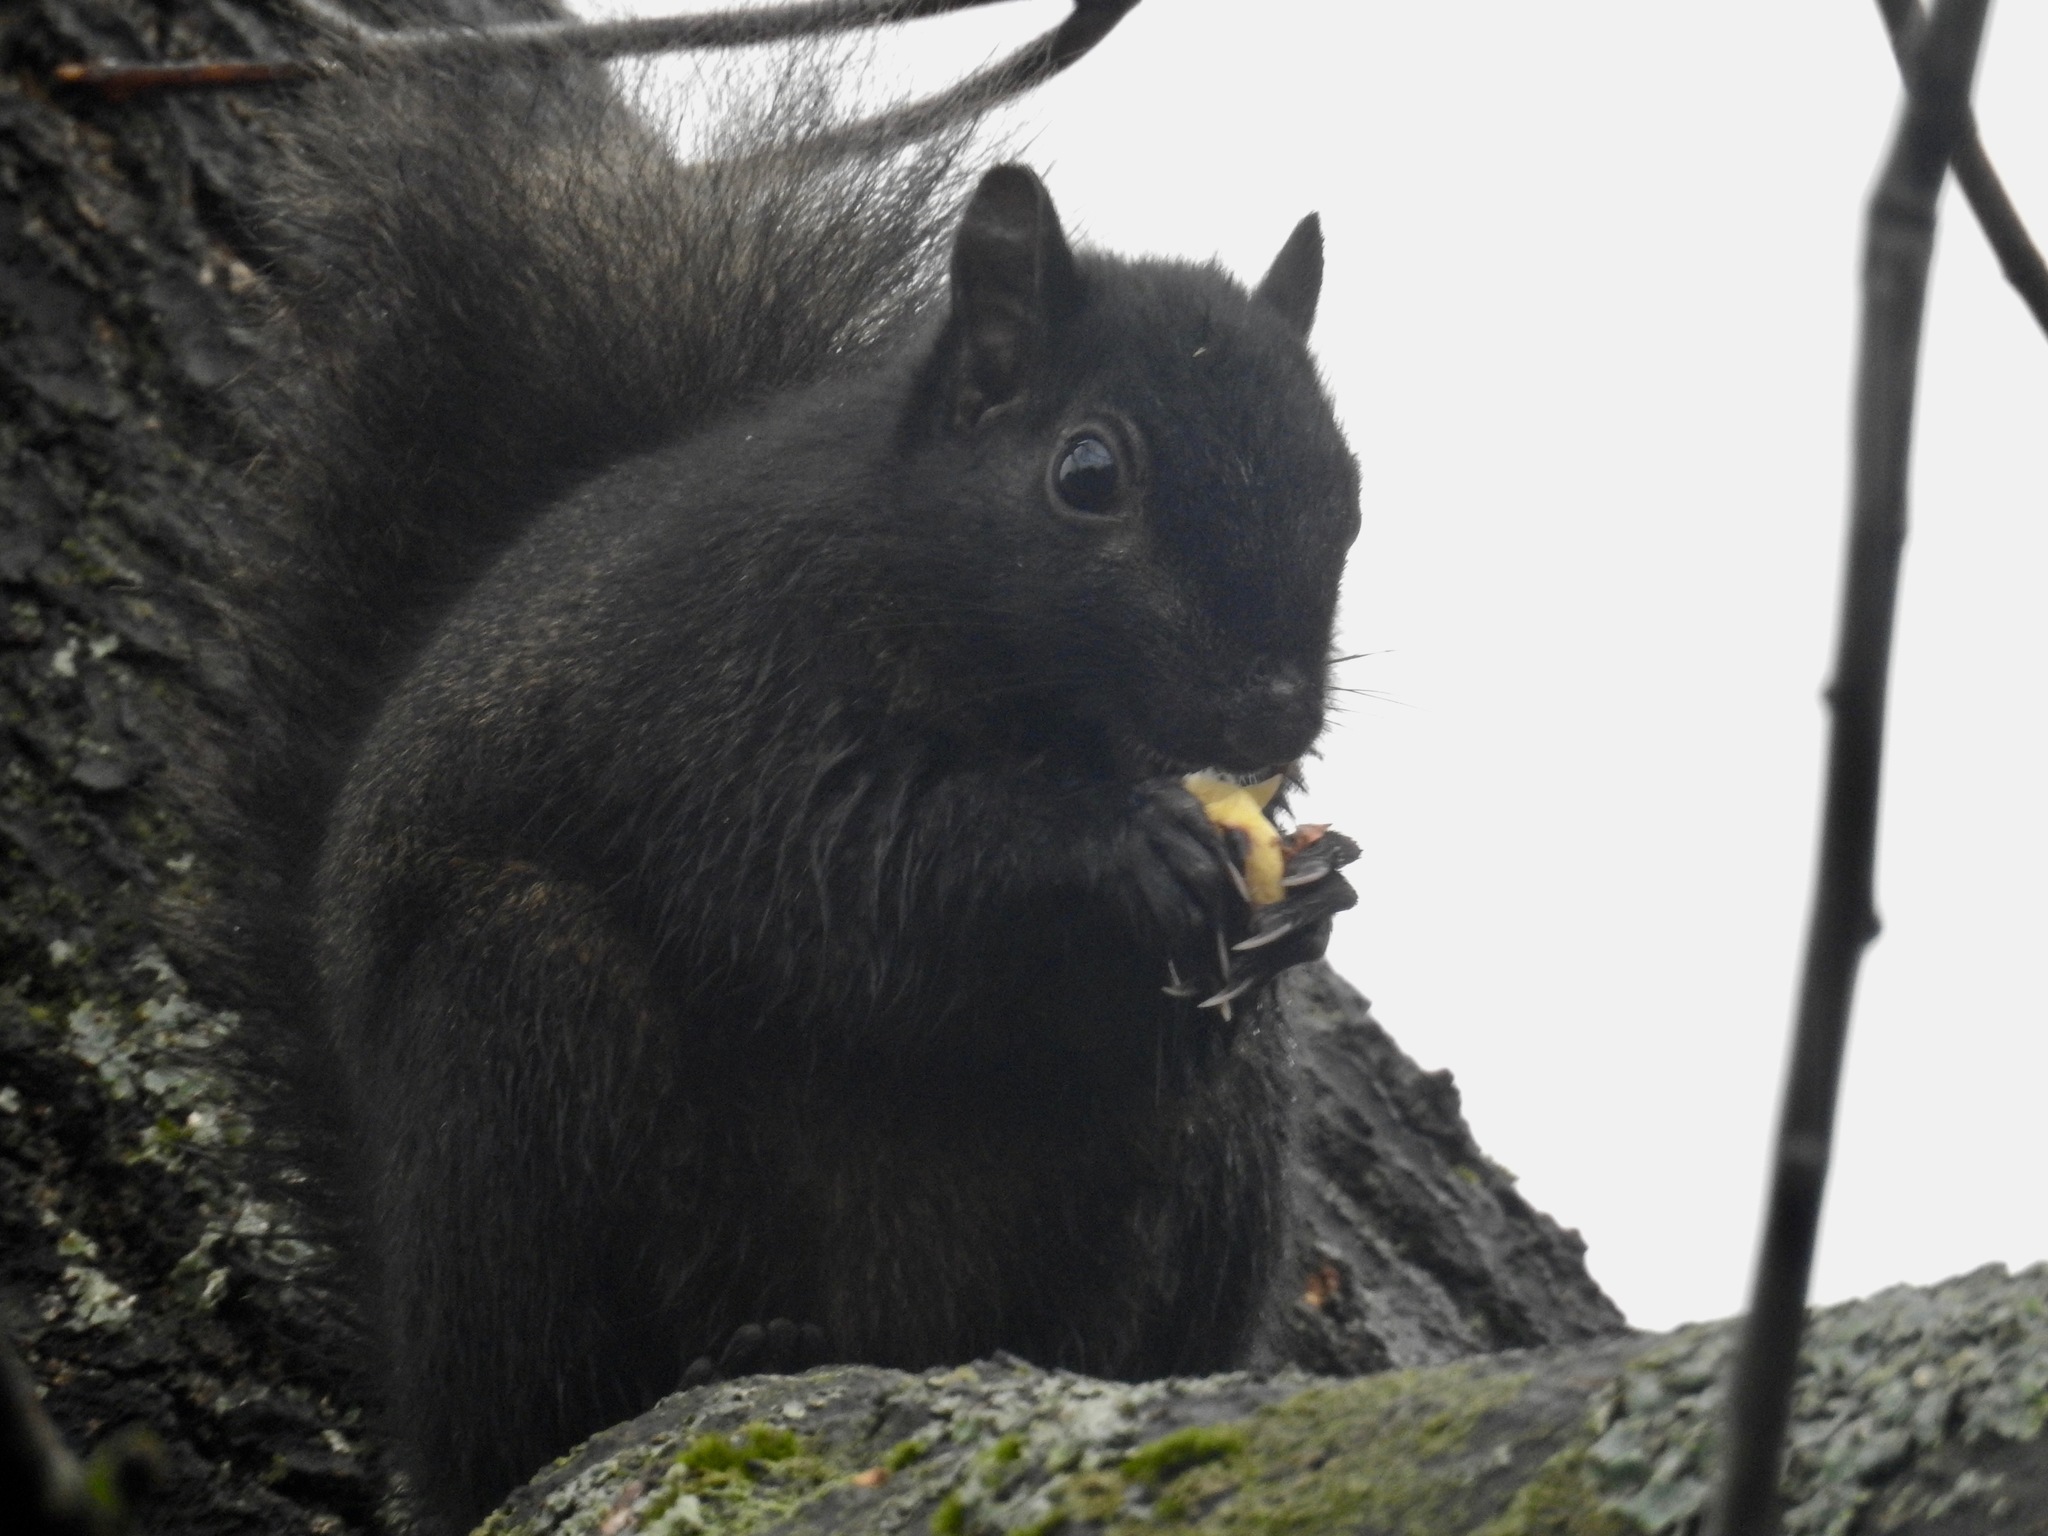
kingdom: Animalia
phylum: Chordata
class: Mammalia
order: Rodentia
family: Sciuridae
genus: Sciurus
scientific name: Sciurus carolinensis
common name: Eastern gray squirrel
